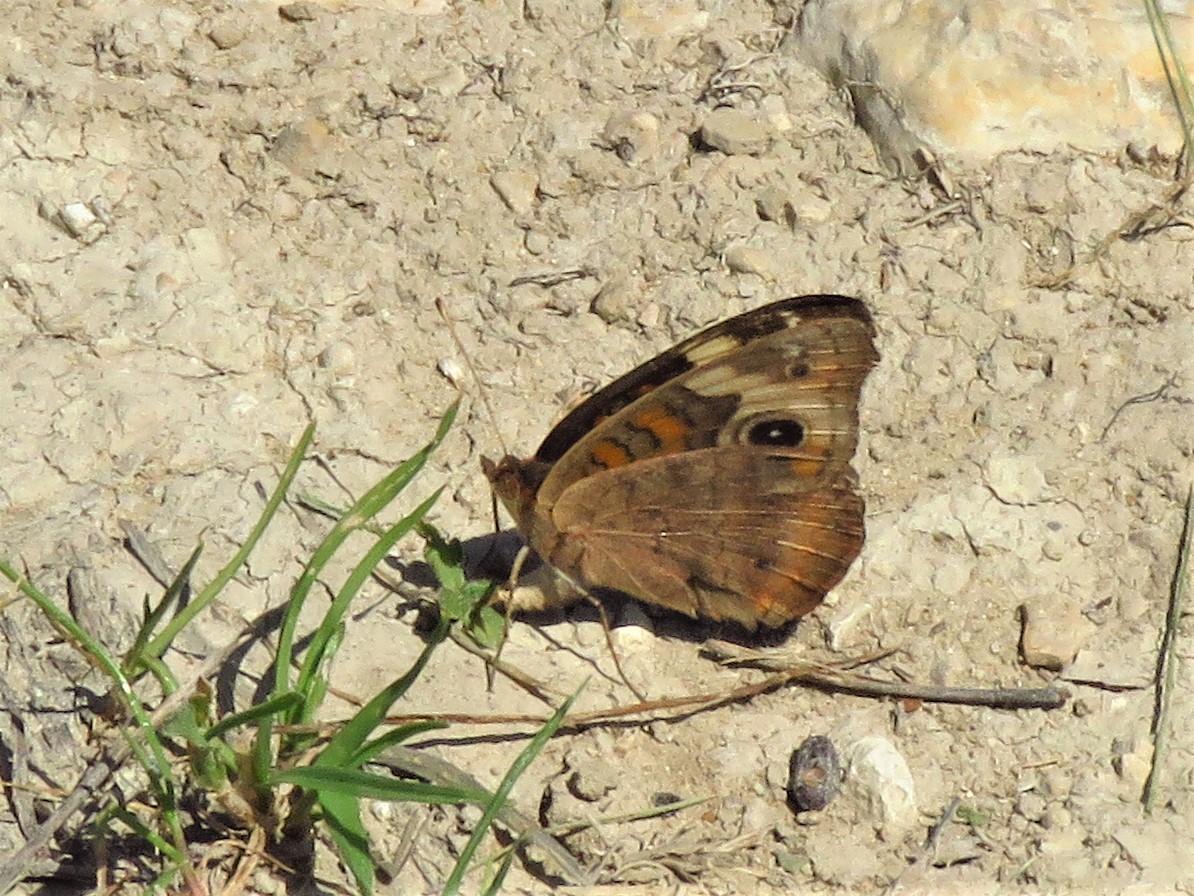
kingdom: Animalia
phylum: Arthropoda
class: Insecta
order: Lepidoptera
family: Nymphalidae
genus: Junonia
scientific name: Junonia coenia
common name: Common buckeye
